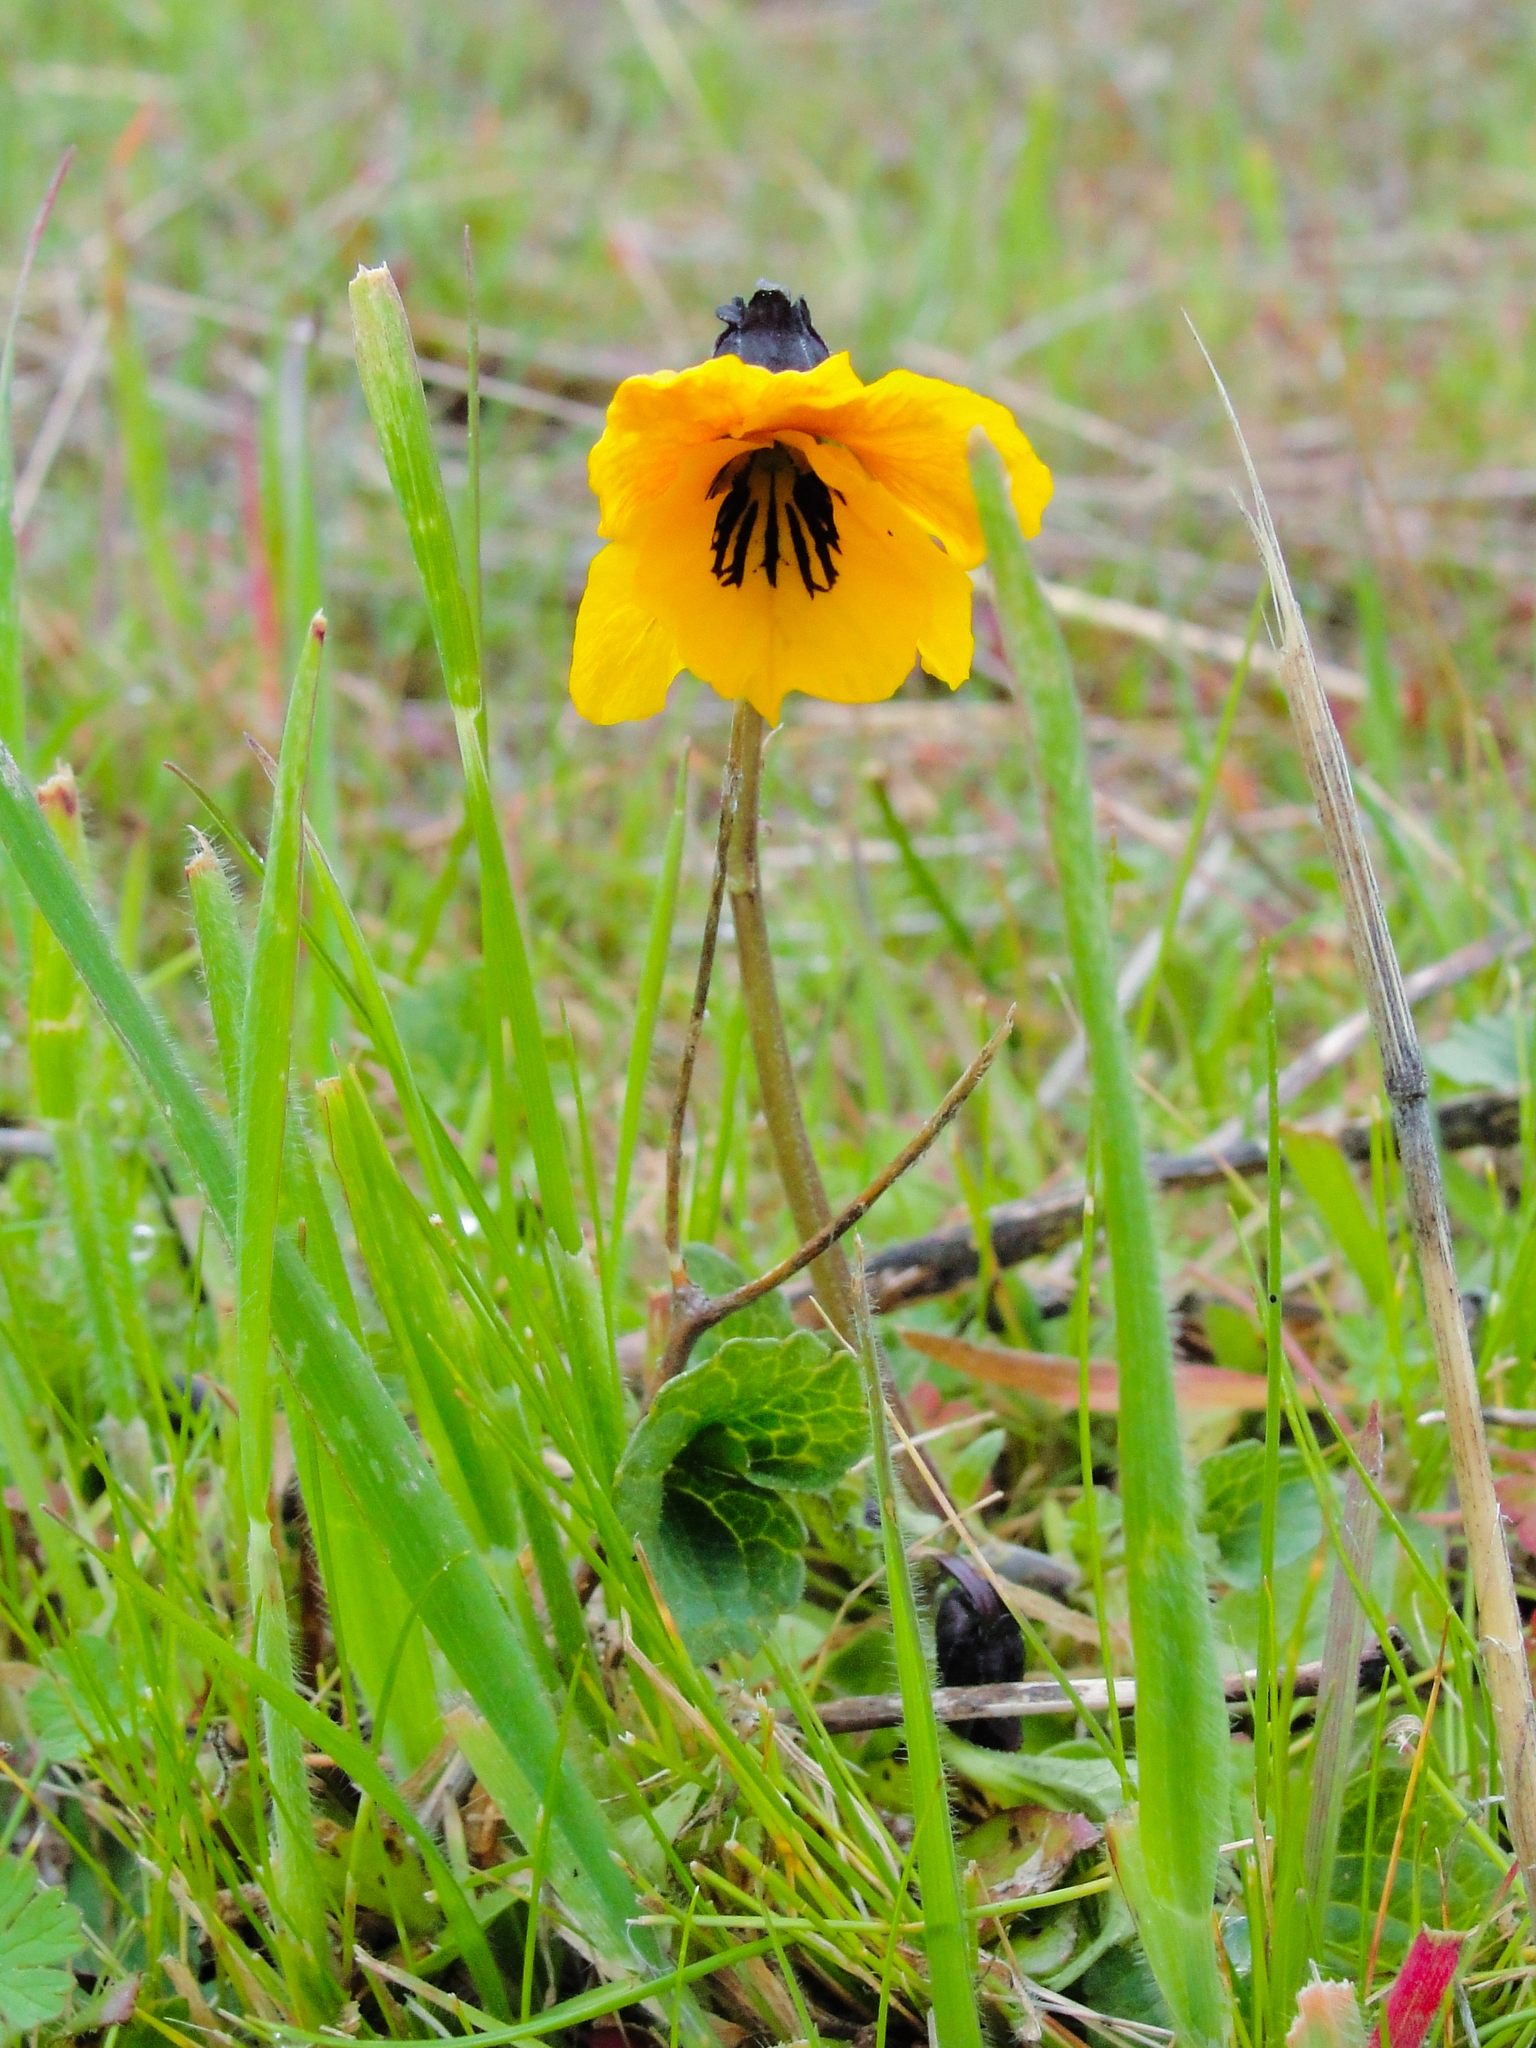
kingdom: Plantae
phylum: Tracheophyta
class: Magnoliopsida
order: Malpighiales
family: Violaceae
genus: Viola
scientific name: Viola pedunculata
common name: California golden violet
